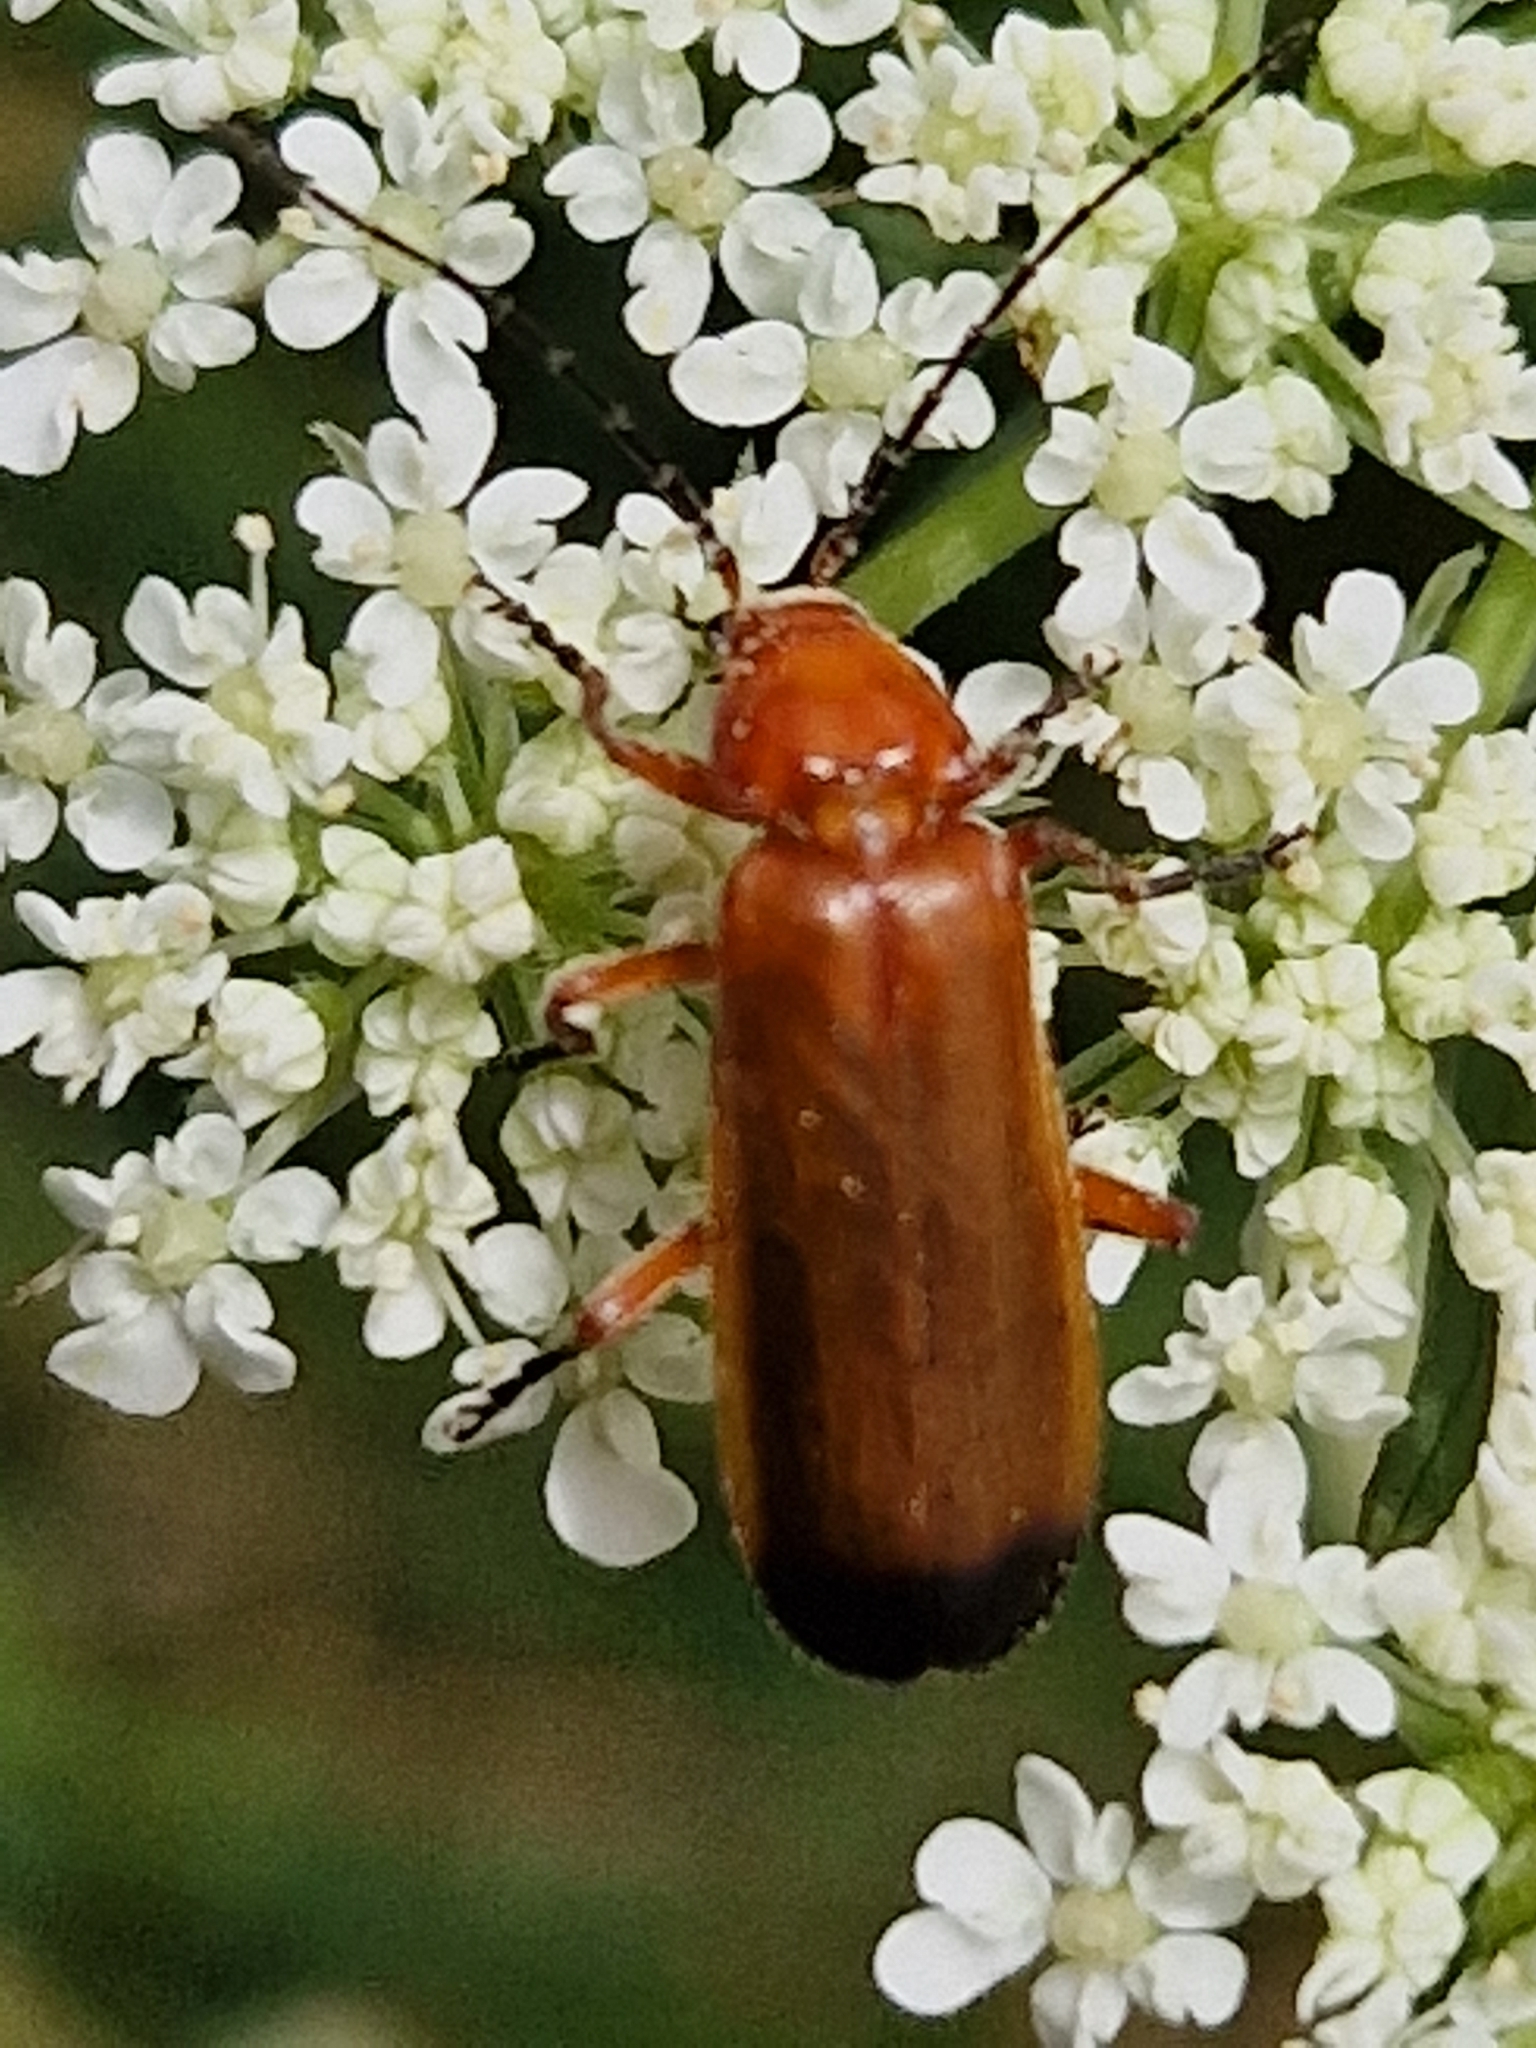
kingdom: Animalia
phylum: Arthropoda
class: Insecta
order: Coleoptera
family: Cantharidae
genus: Rhagonycha
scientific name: Rhagonycha fulva
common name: Common red soldier beetle
